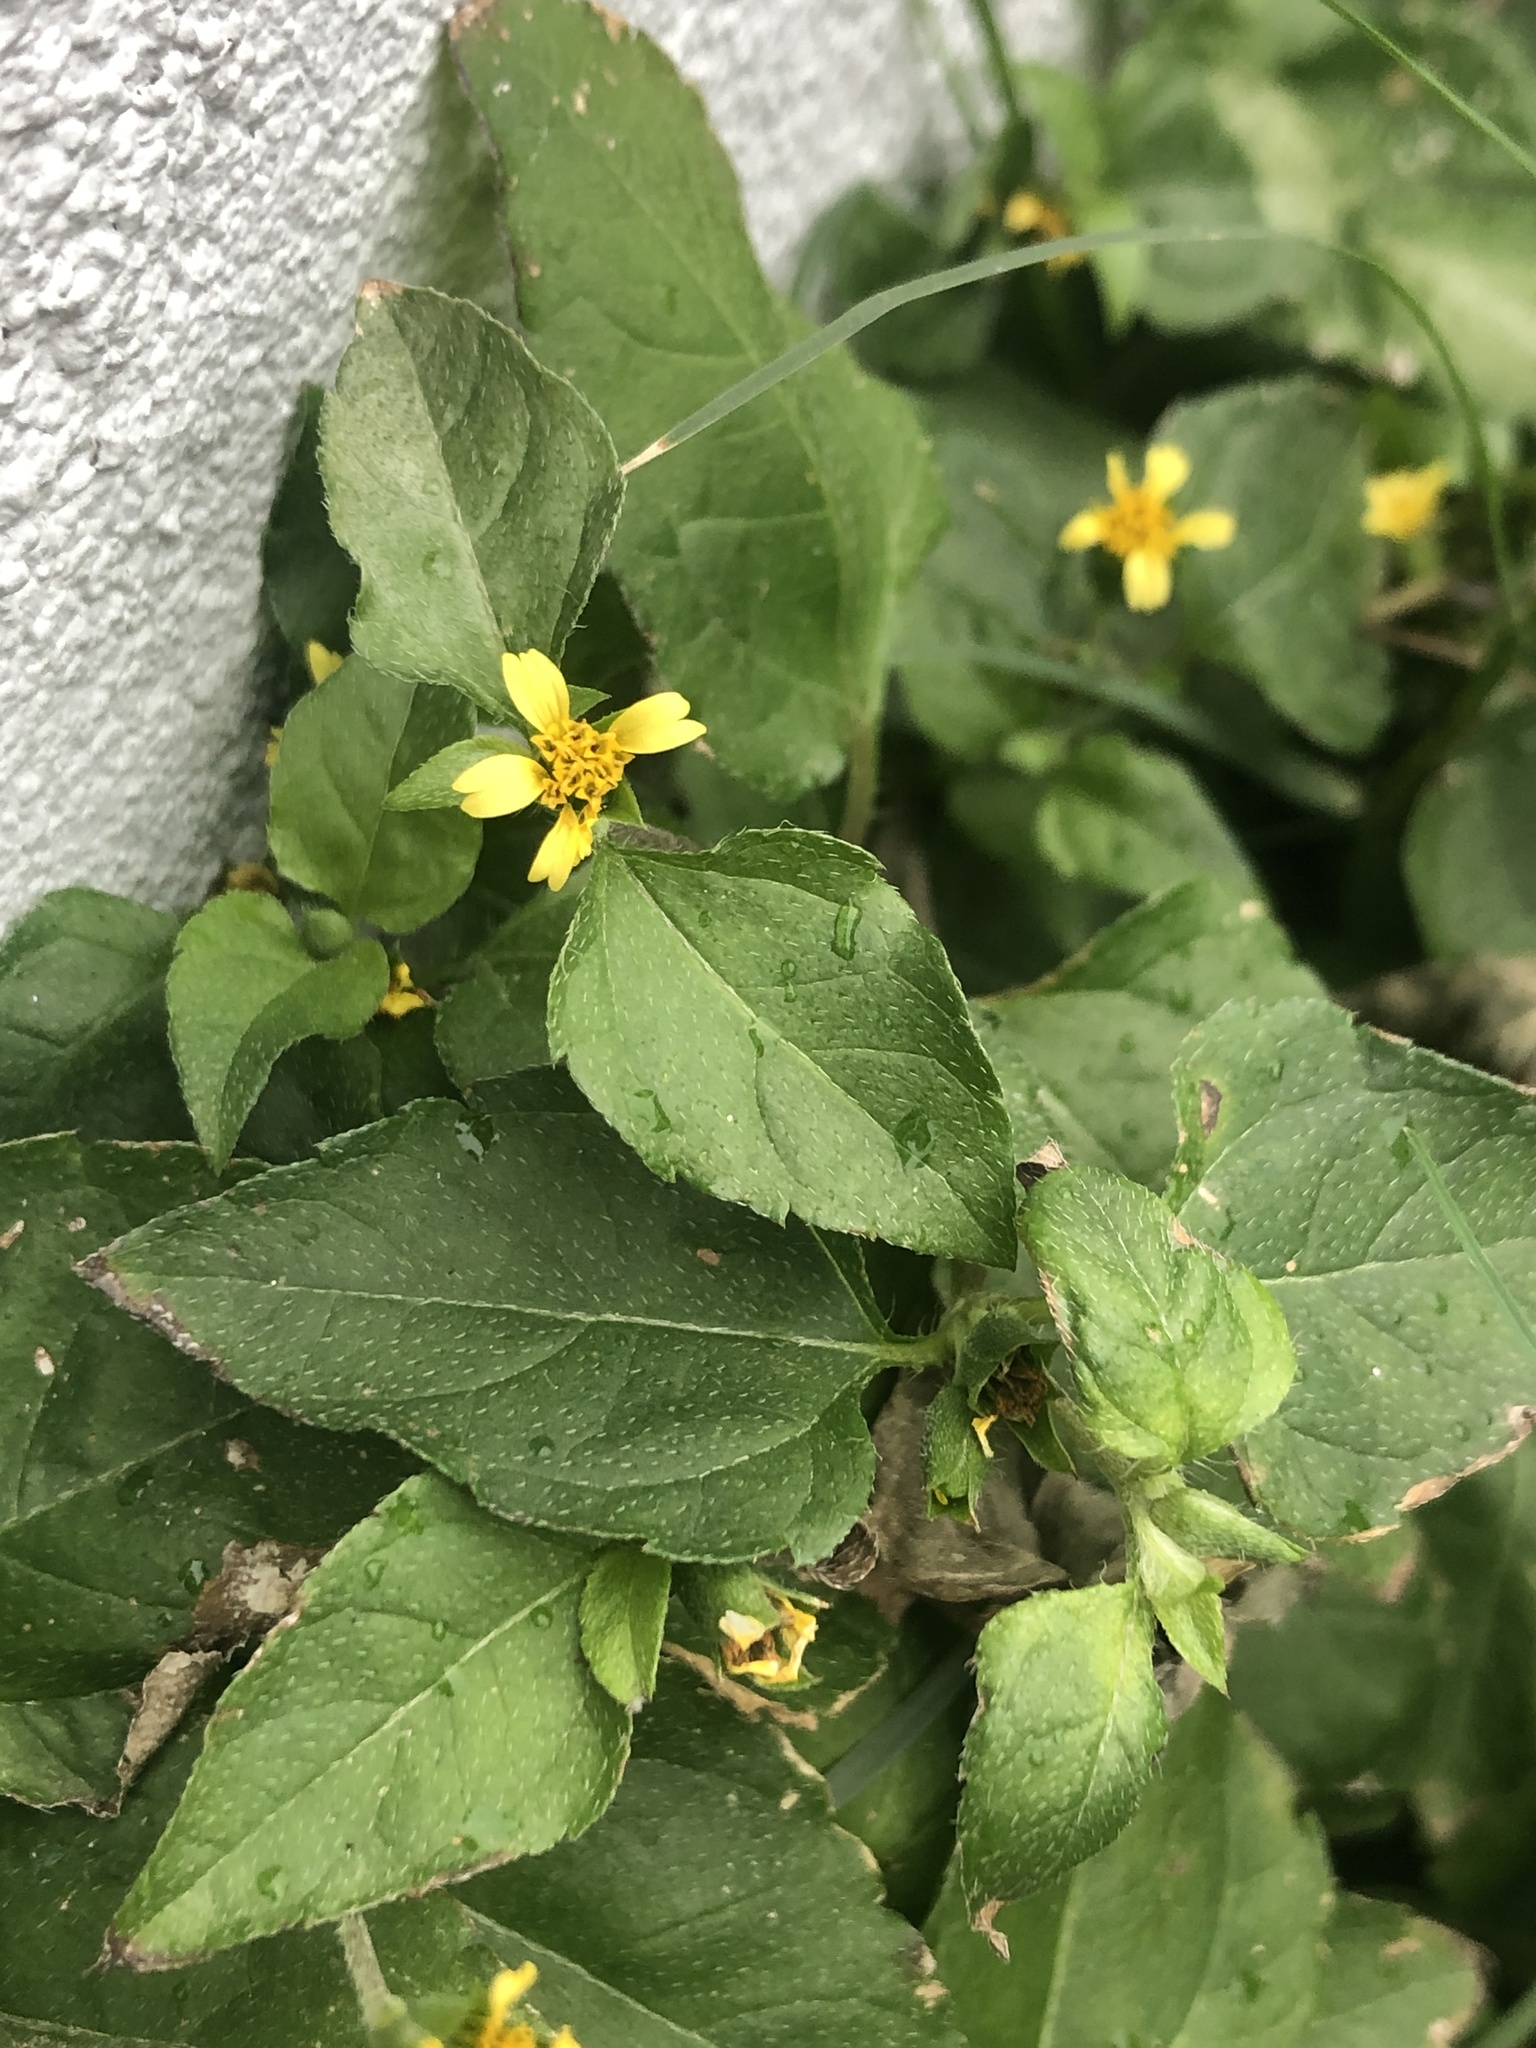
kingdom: Plantae
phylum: Tracheophyta
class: Magnoliopsida
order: Asterales
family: Asteraceae
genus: Calyptocarpus
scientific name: Calyptocarpus vialis
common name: Straggler daisy
